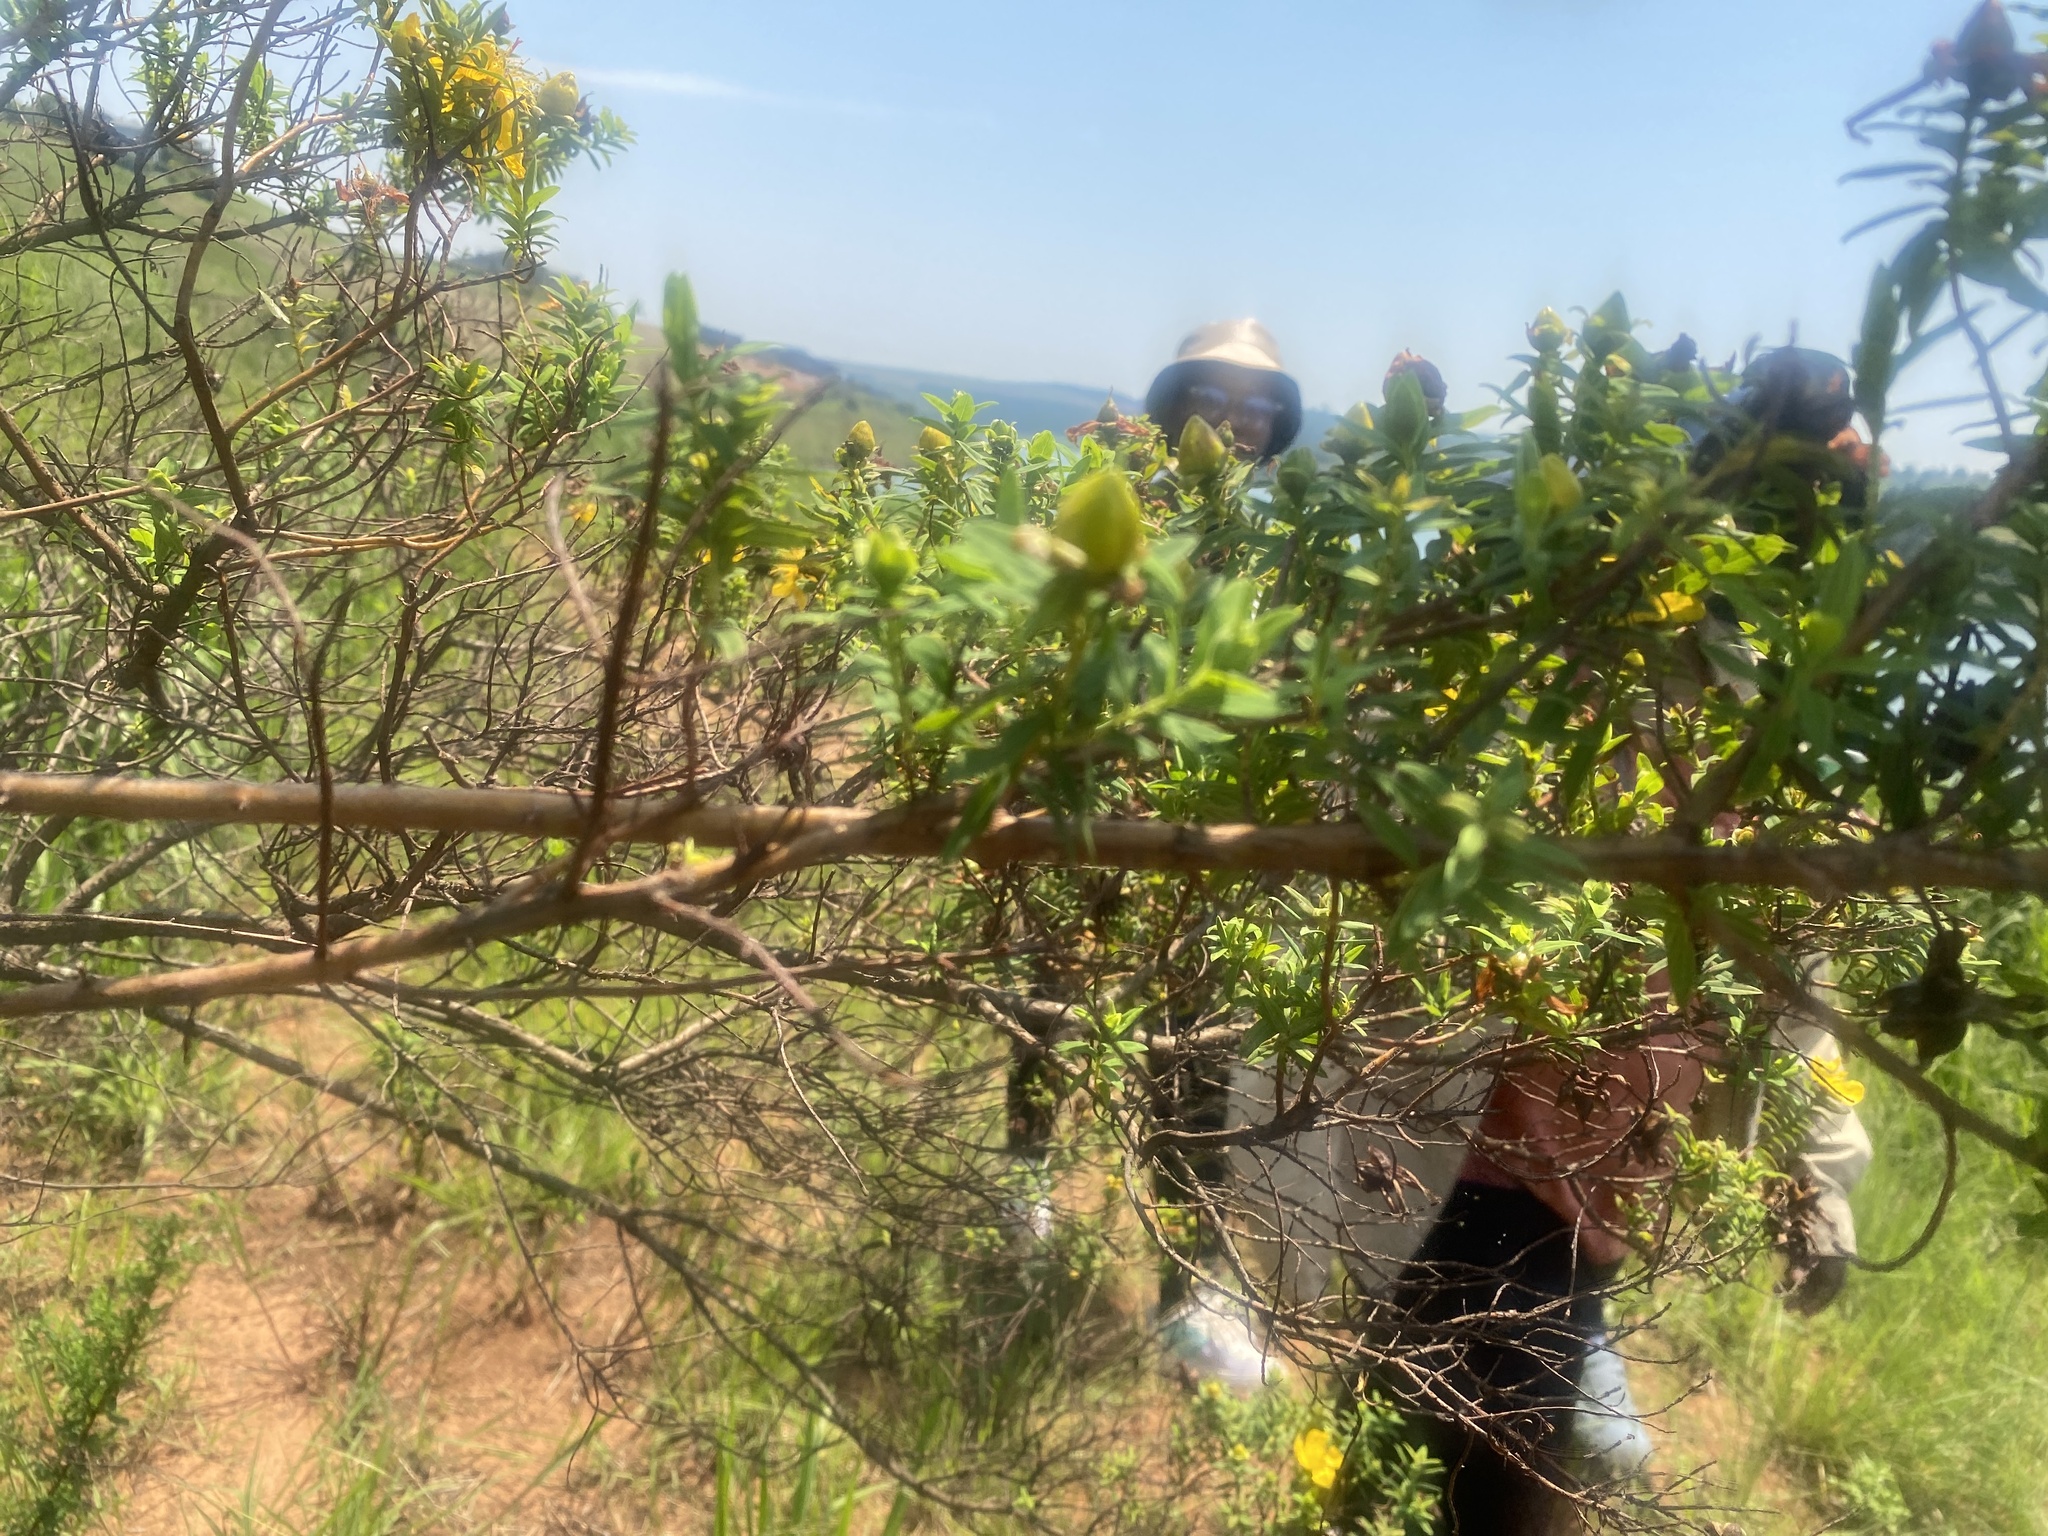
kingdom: Plantae
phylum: Tracheophyta
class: Magnoliopsida
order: Malpighiales
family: Hypericaceae
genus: Hypericum
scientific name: Hypericum revolutum
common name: Curry bush
